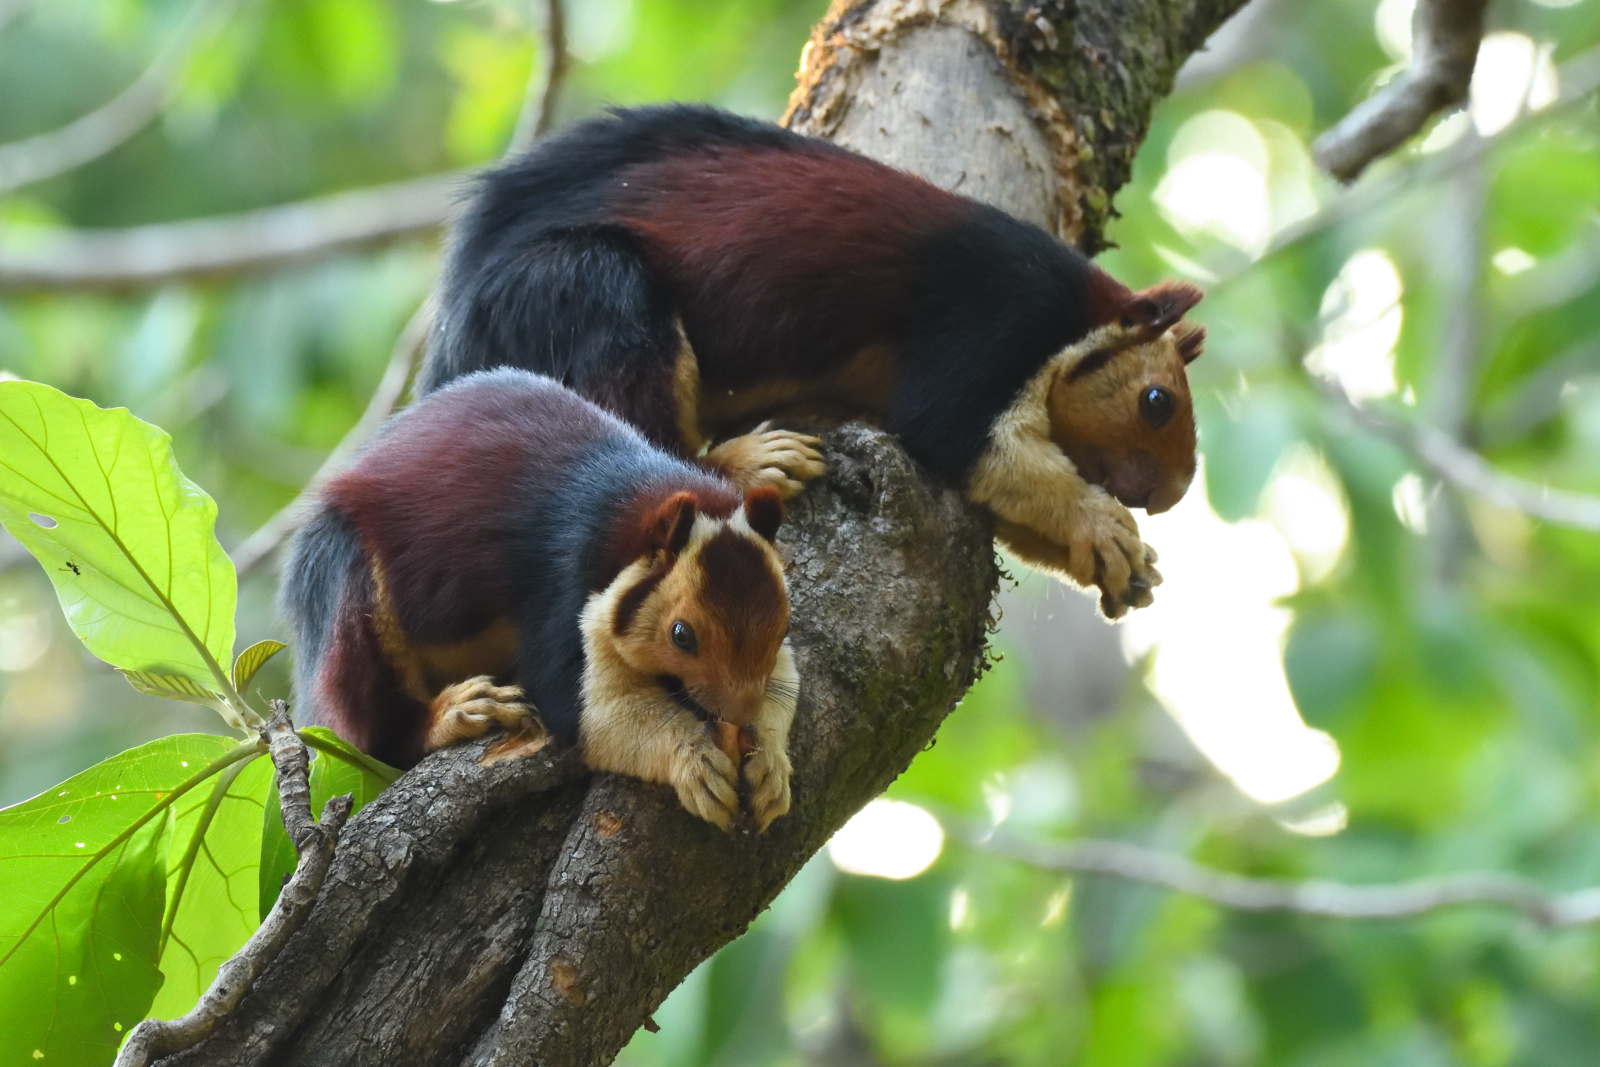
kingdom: Animalia
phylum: Chordata
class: Mammalia
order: Rodentia
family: Sciuridae
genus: Ratufa
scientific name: Ratufa indica
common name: Indian giant squirrel
